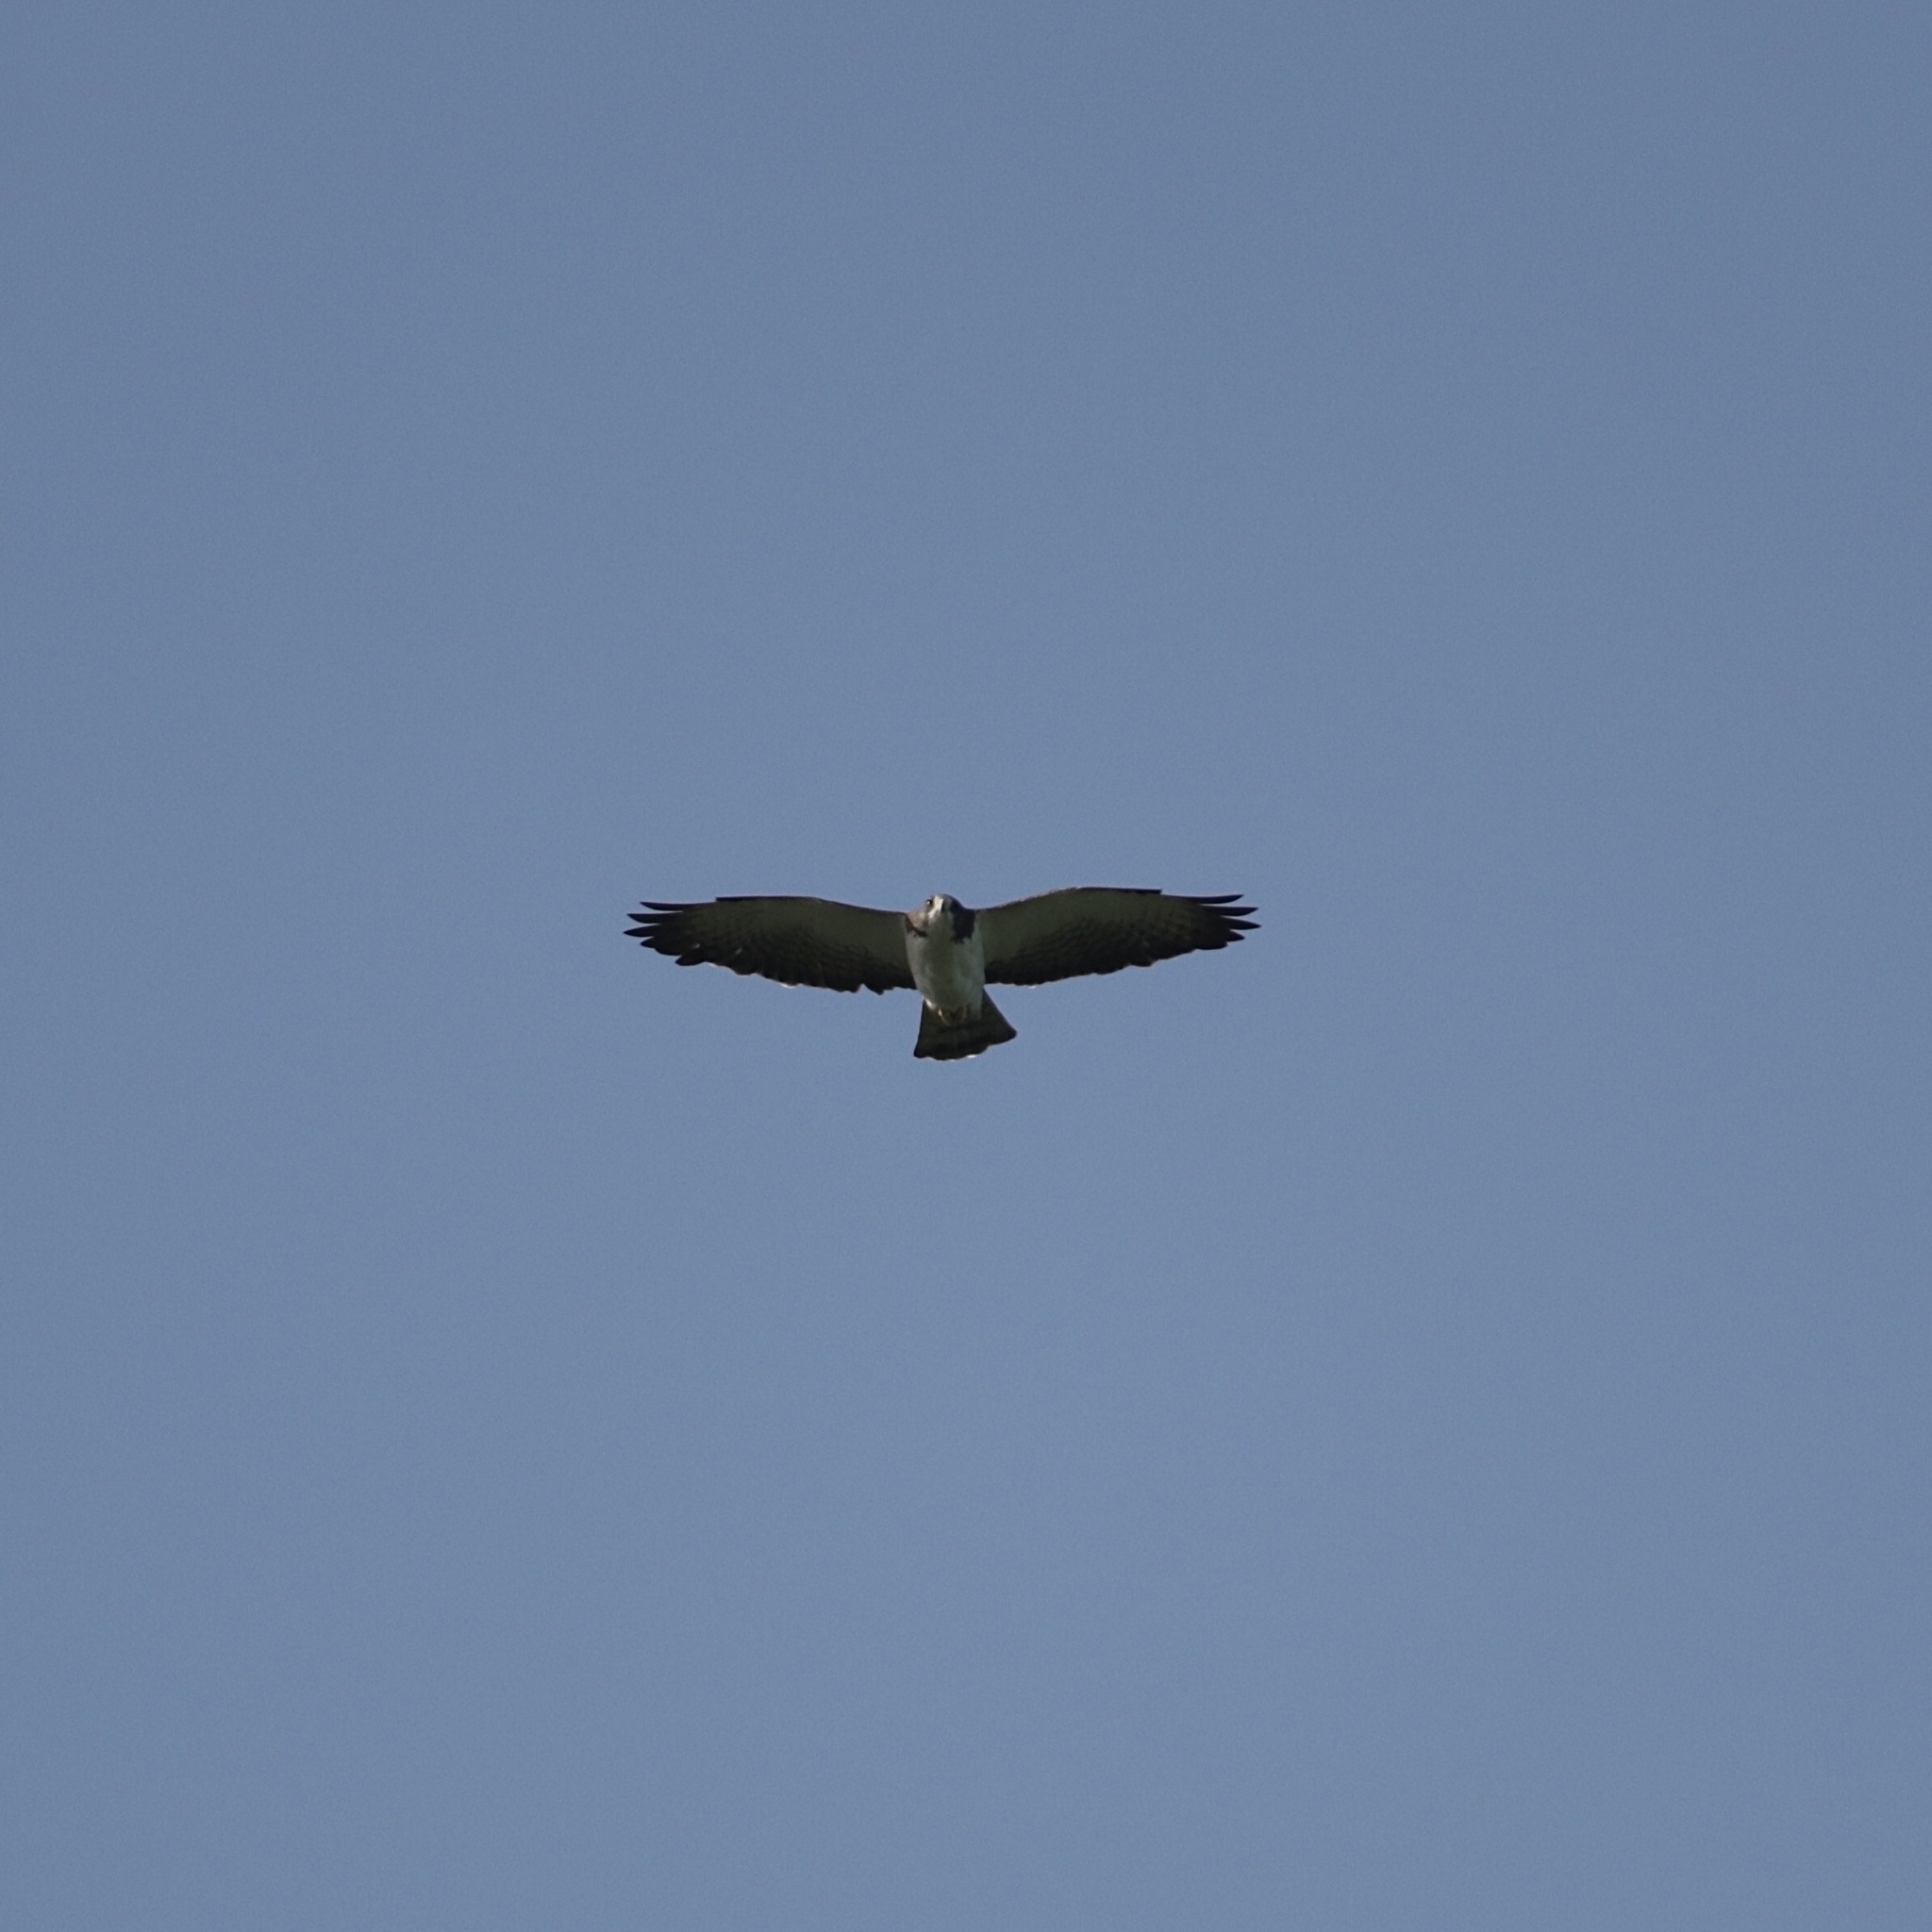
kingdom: Animalia
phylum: Chordata
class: Aves
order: Accipitriformes
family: Accipitridae
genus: Buteo
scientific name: Buteo brachyurus
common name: Short-tailed hawk
